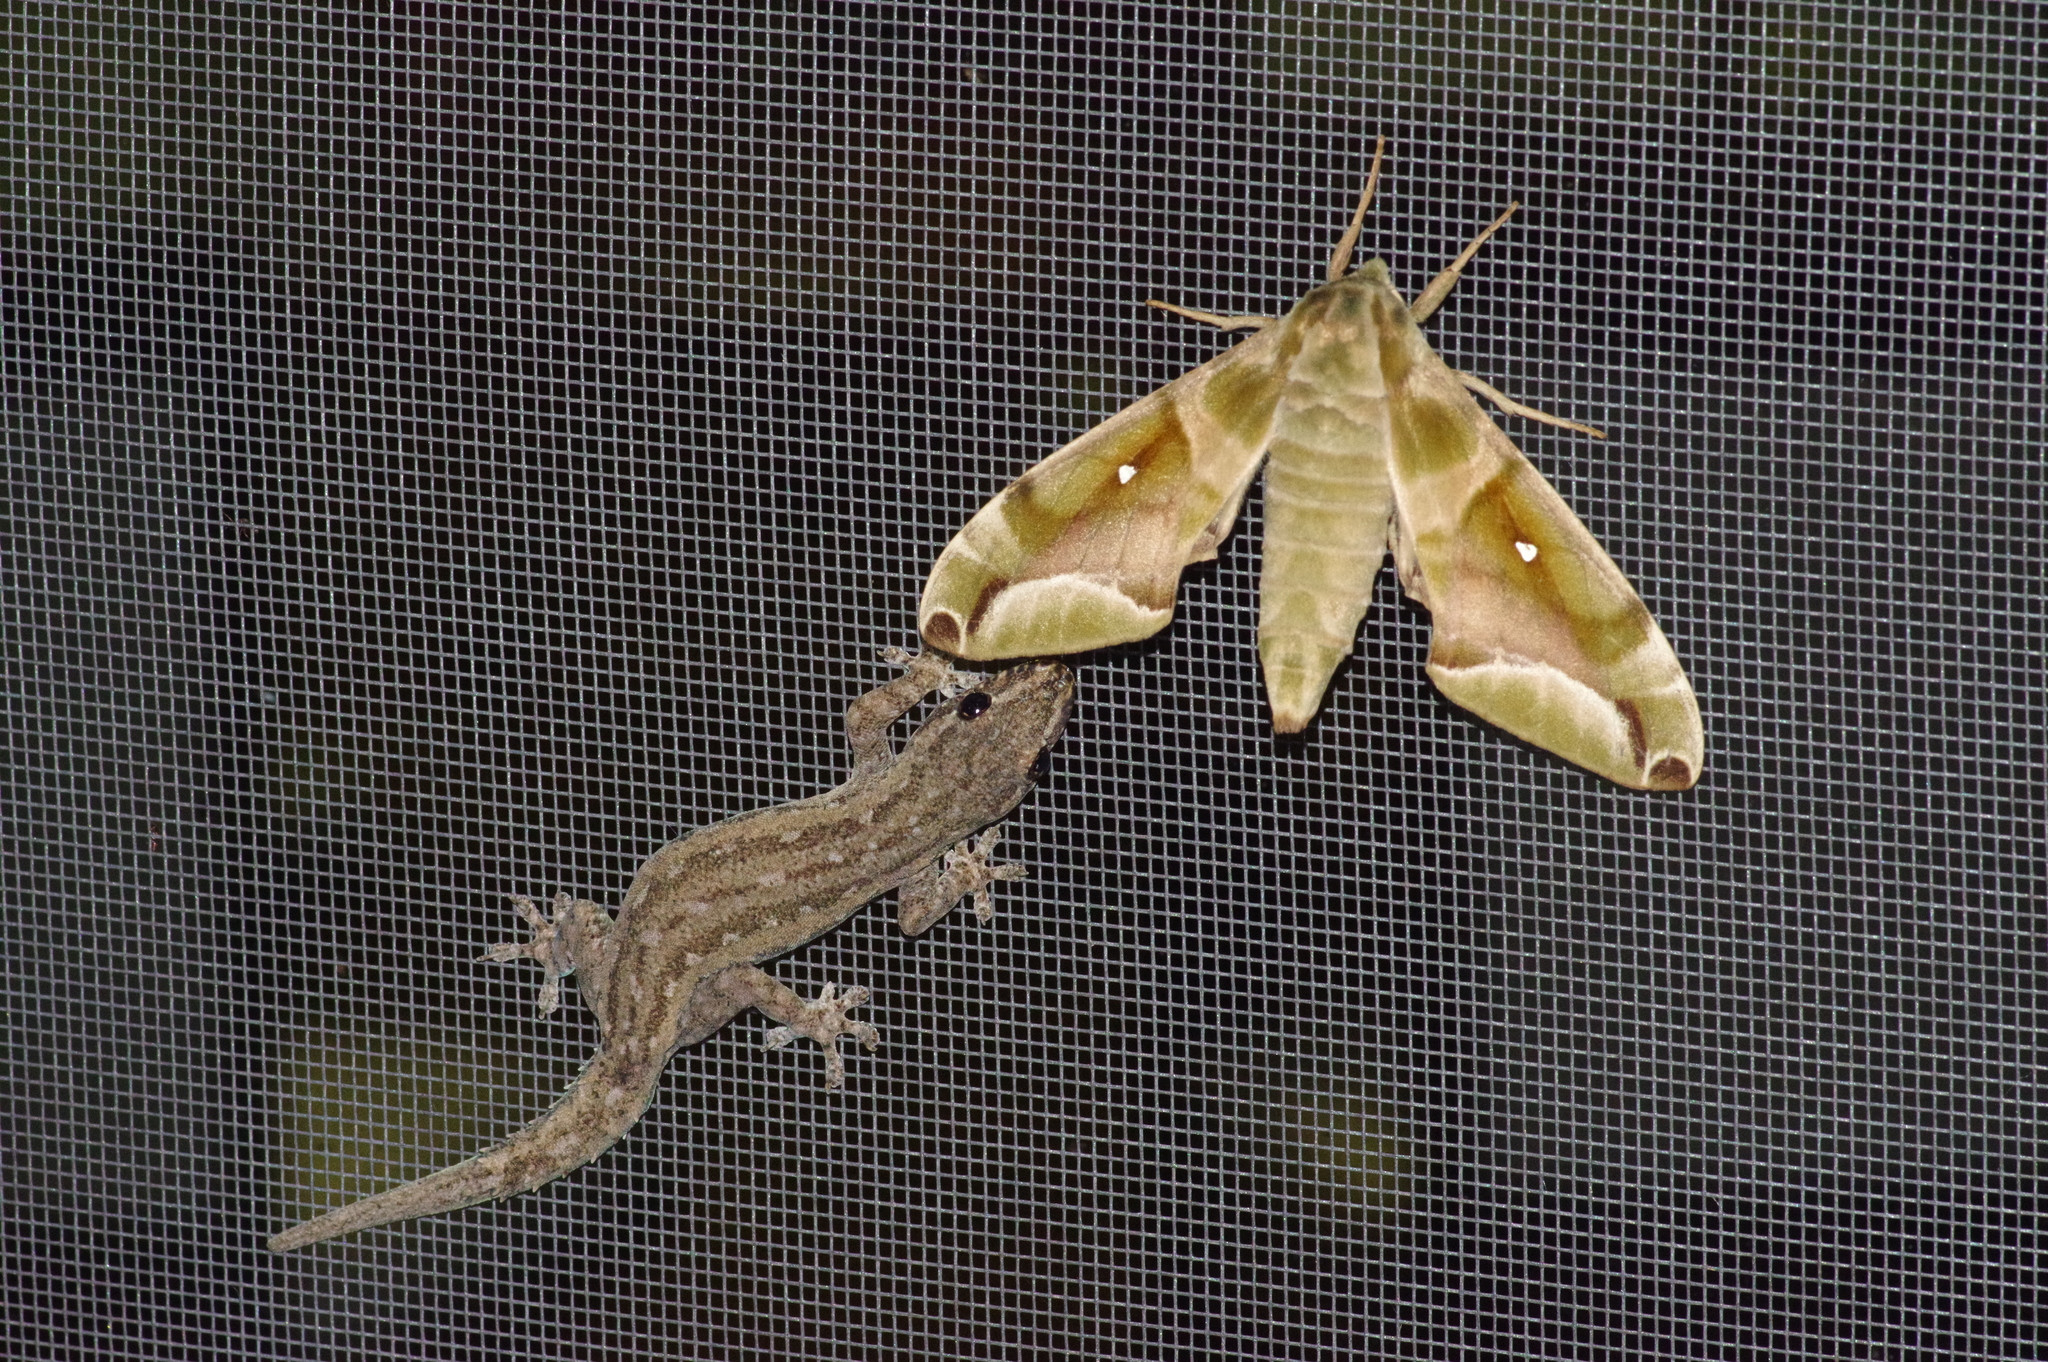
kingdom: Animalia
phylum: Arthropoda
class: Insecta
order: Lepidoptera
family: Sphingidae
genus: Parum
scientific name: Parum colligata
